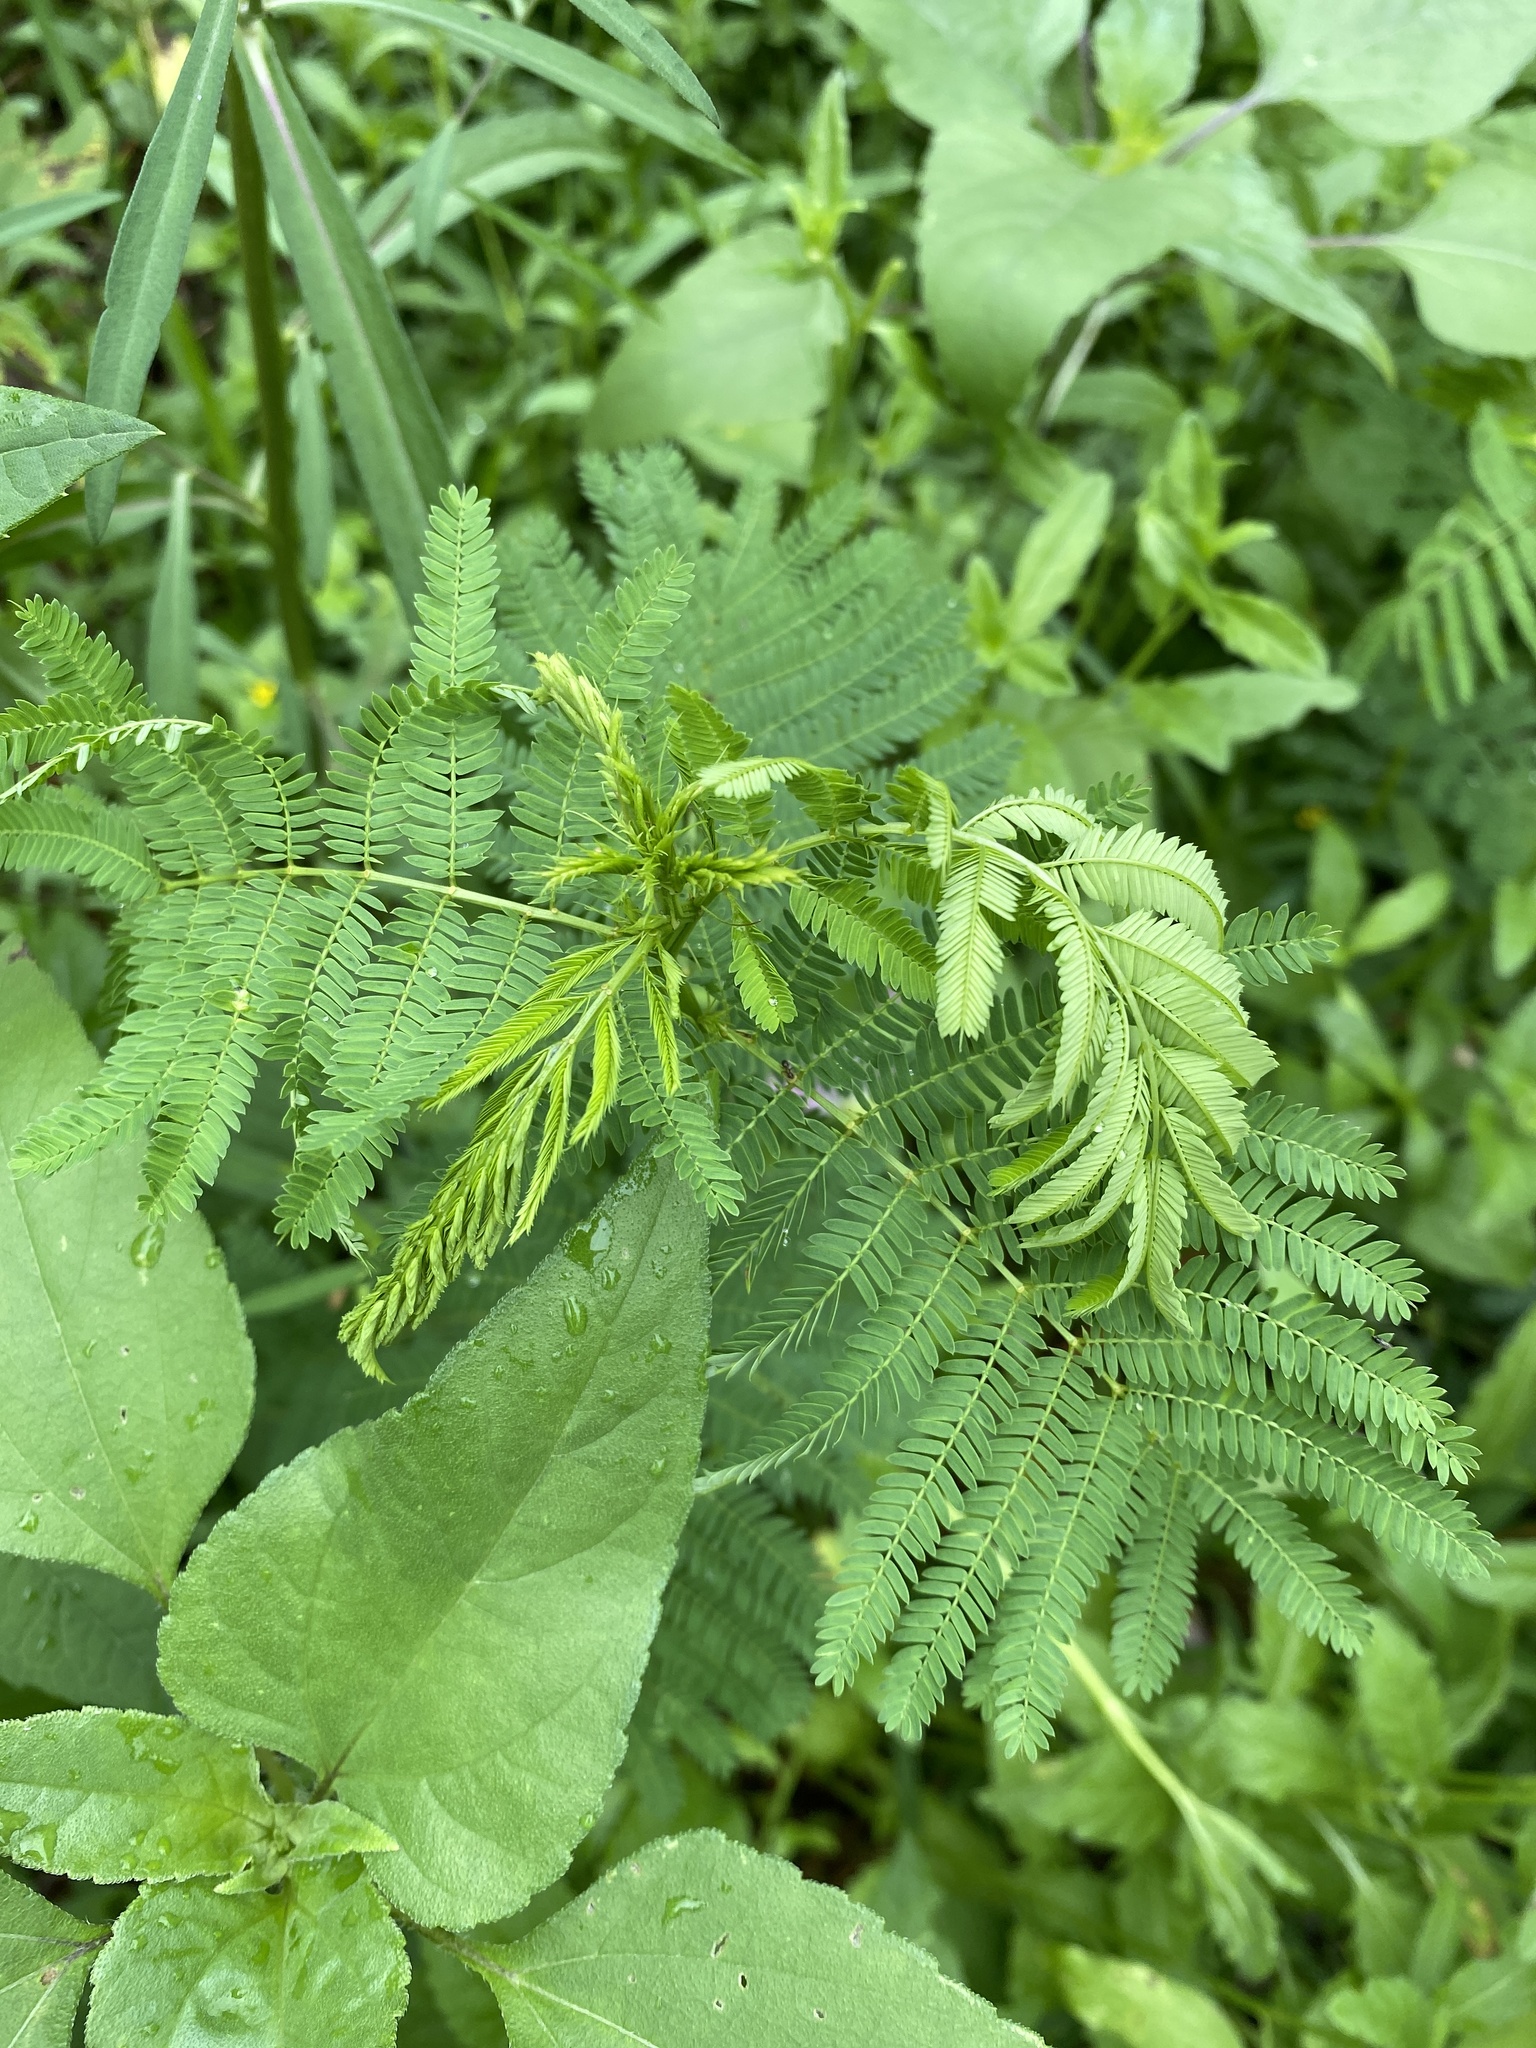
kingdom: Plantae
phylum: Tracheophyta
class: Magnoliopsida
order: Fabales
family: Fabaceae
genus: Desmanthus
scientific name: Desmanthus illinoensis
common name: Illinois bundle-flower
